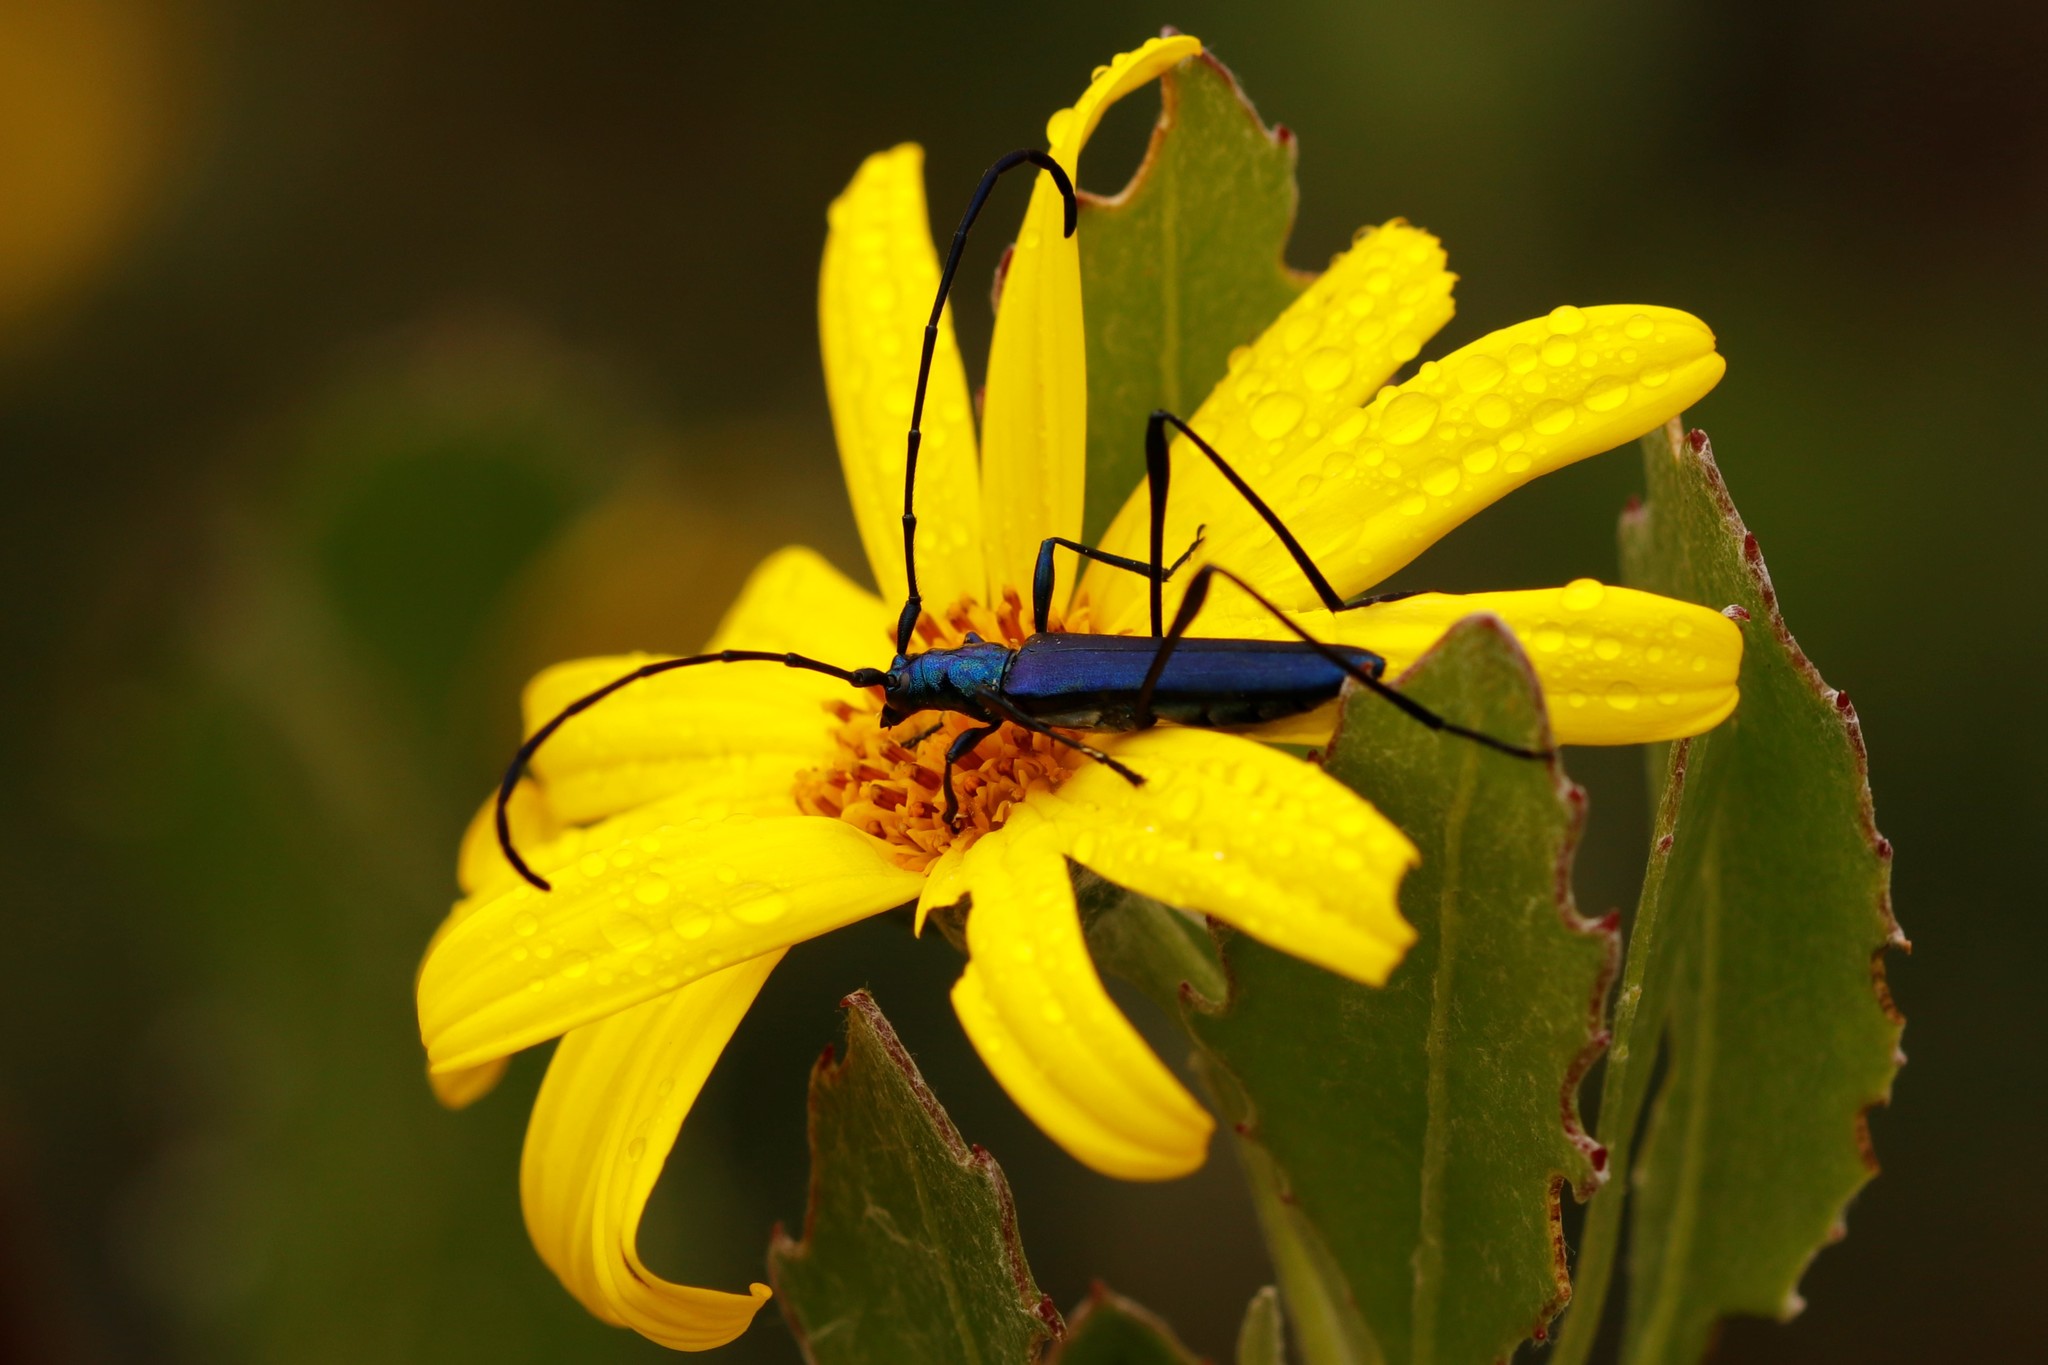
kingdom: Animalia
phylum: Arthropoda
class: Insecta
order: Coleoptera
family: Cerambycidae
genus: Promeces
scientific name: Promeces longipes
